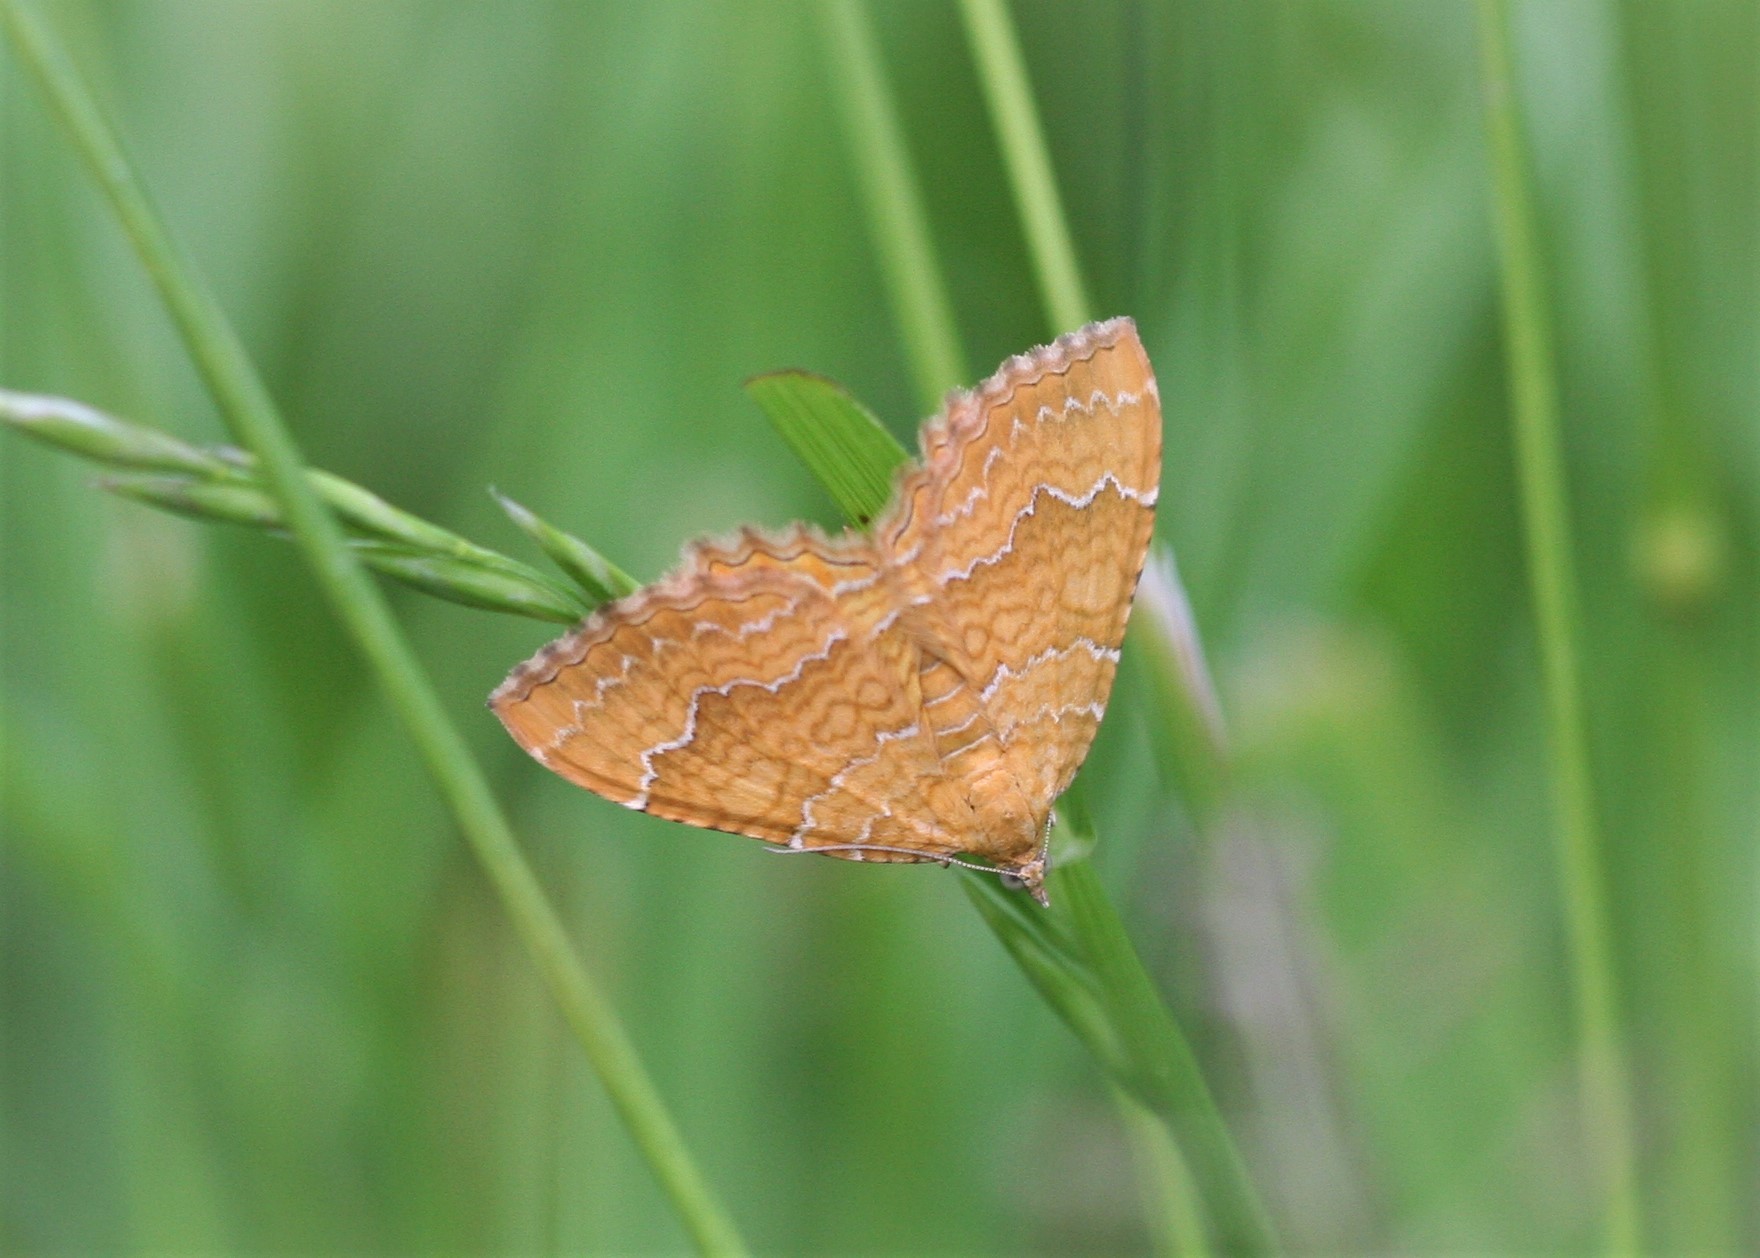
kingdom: Animalia
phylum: Arthropoda
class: Insecta
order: Lepidoptera
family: Geometridae
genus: Camptogramma
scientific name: Camptogramma bilineata
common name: Yellow shell
